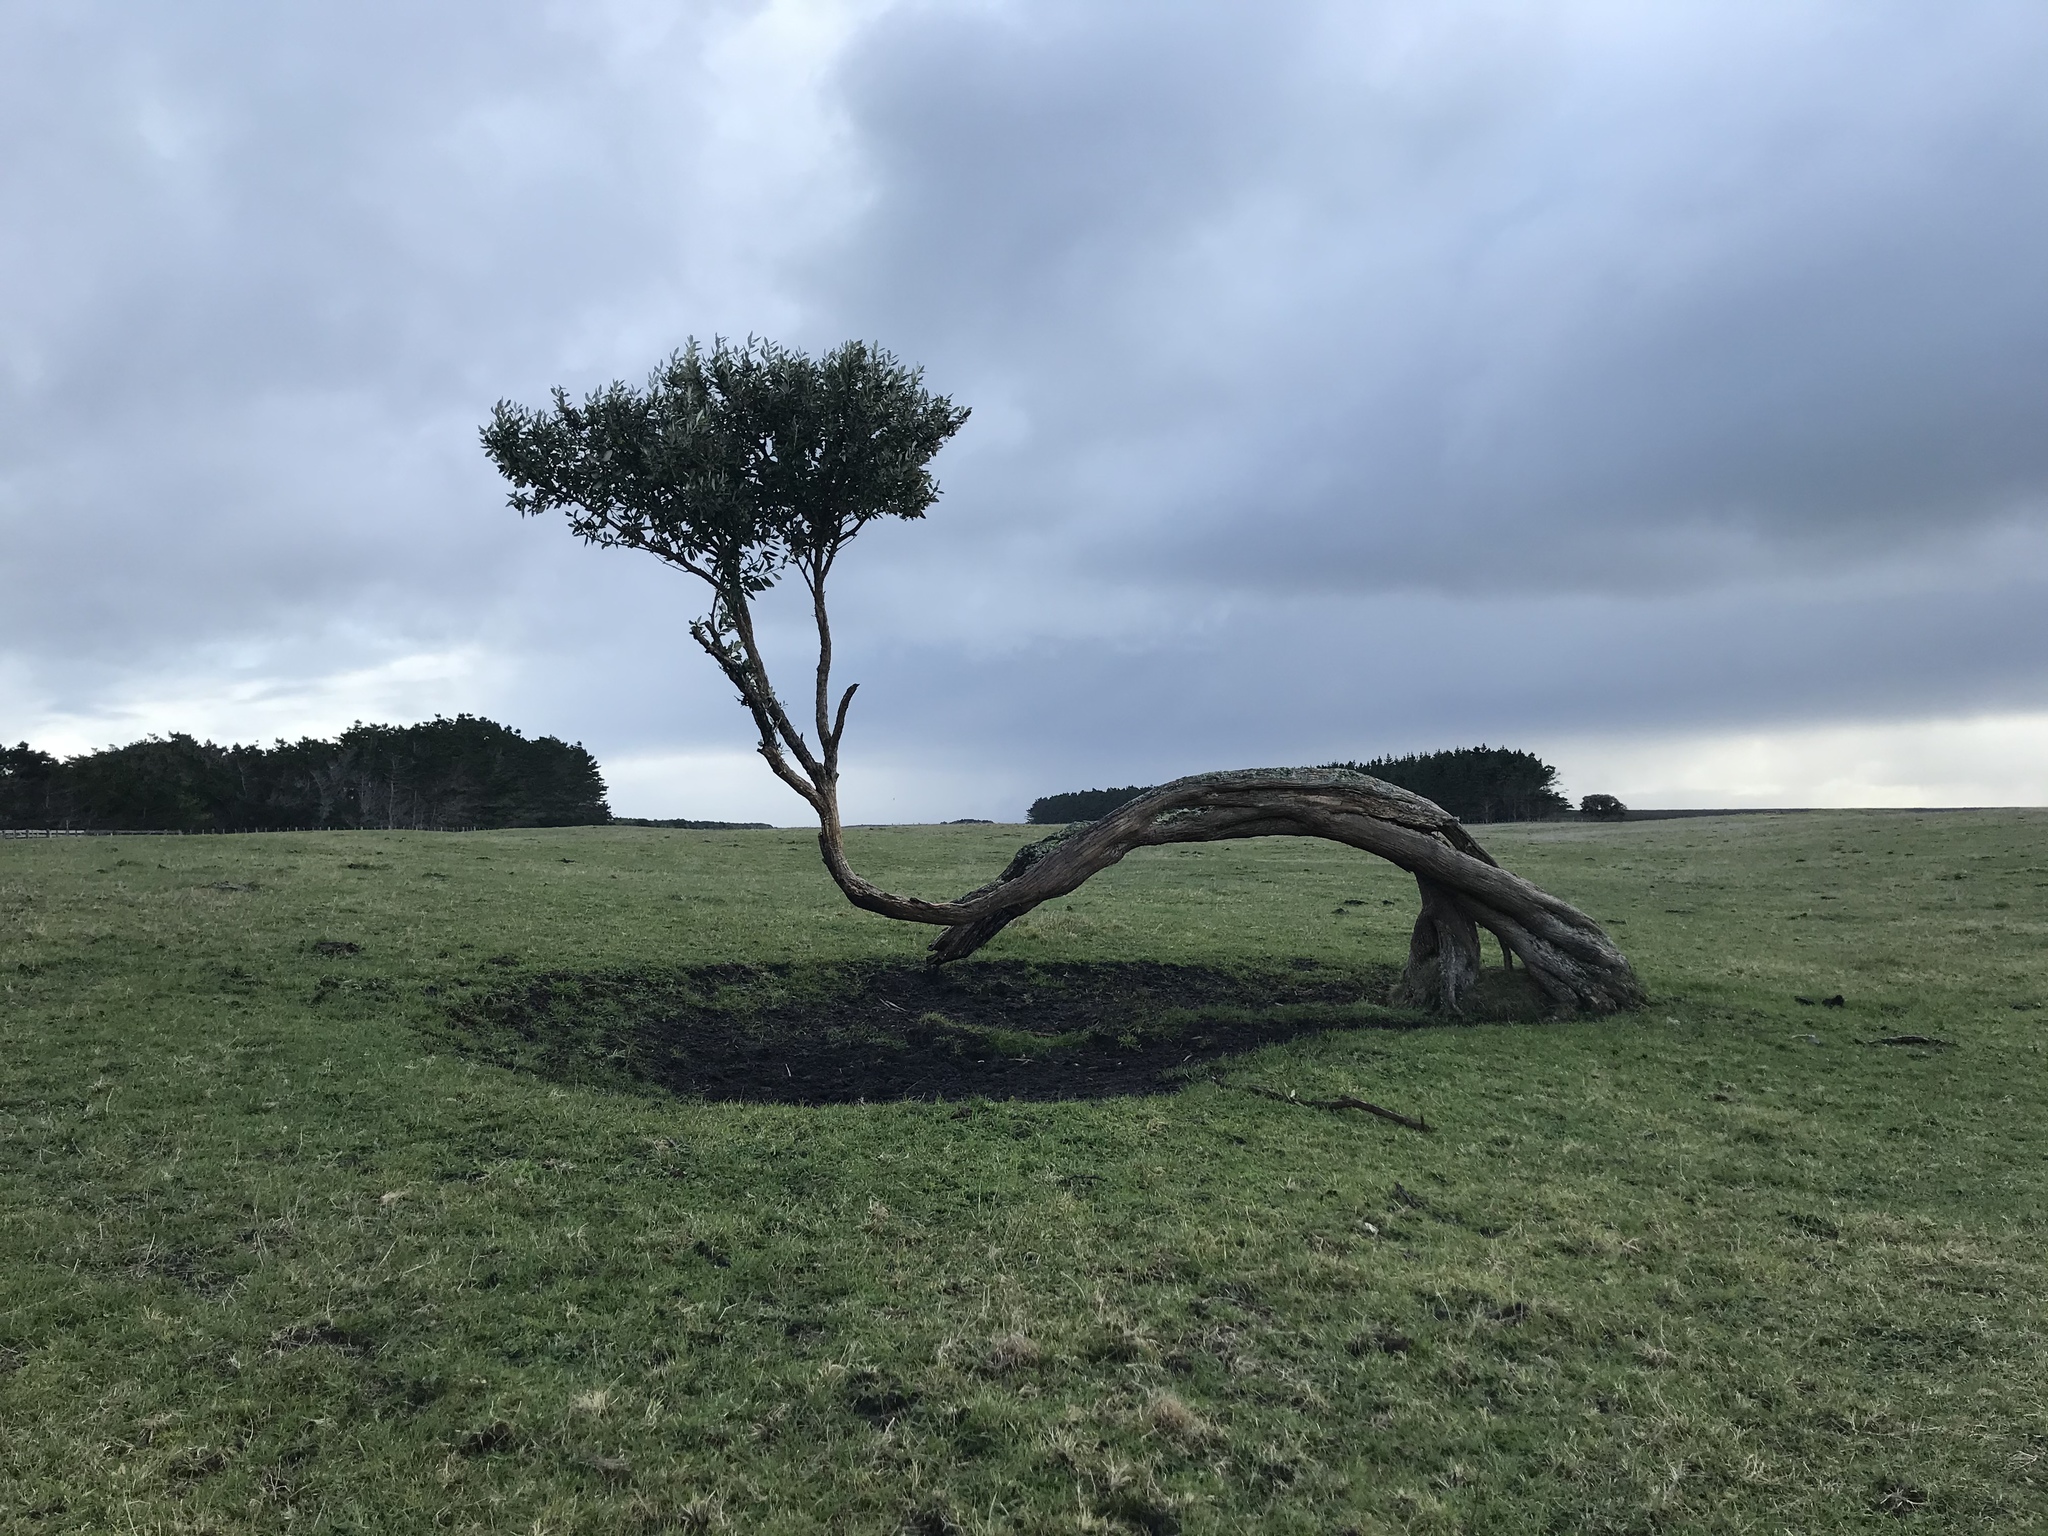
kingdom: Plantae
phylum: Tracheophyta
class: Magnoliopsida
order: Asterales
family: Asteraceae
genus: Olearia
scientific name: Olearia traversiorum
